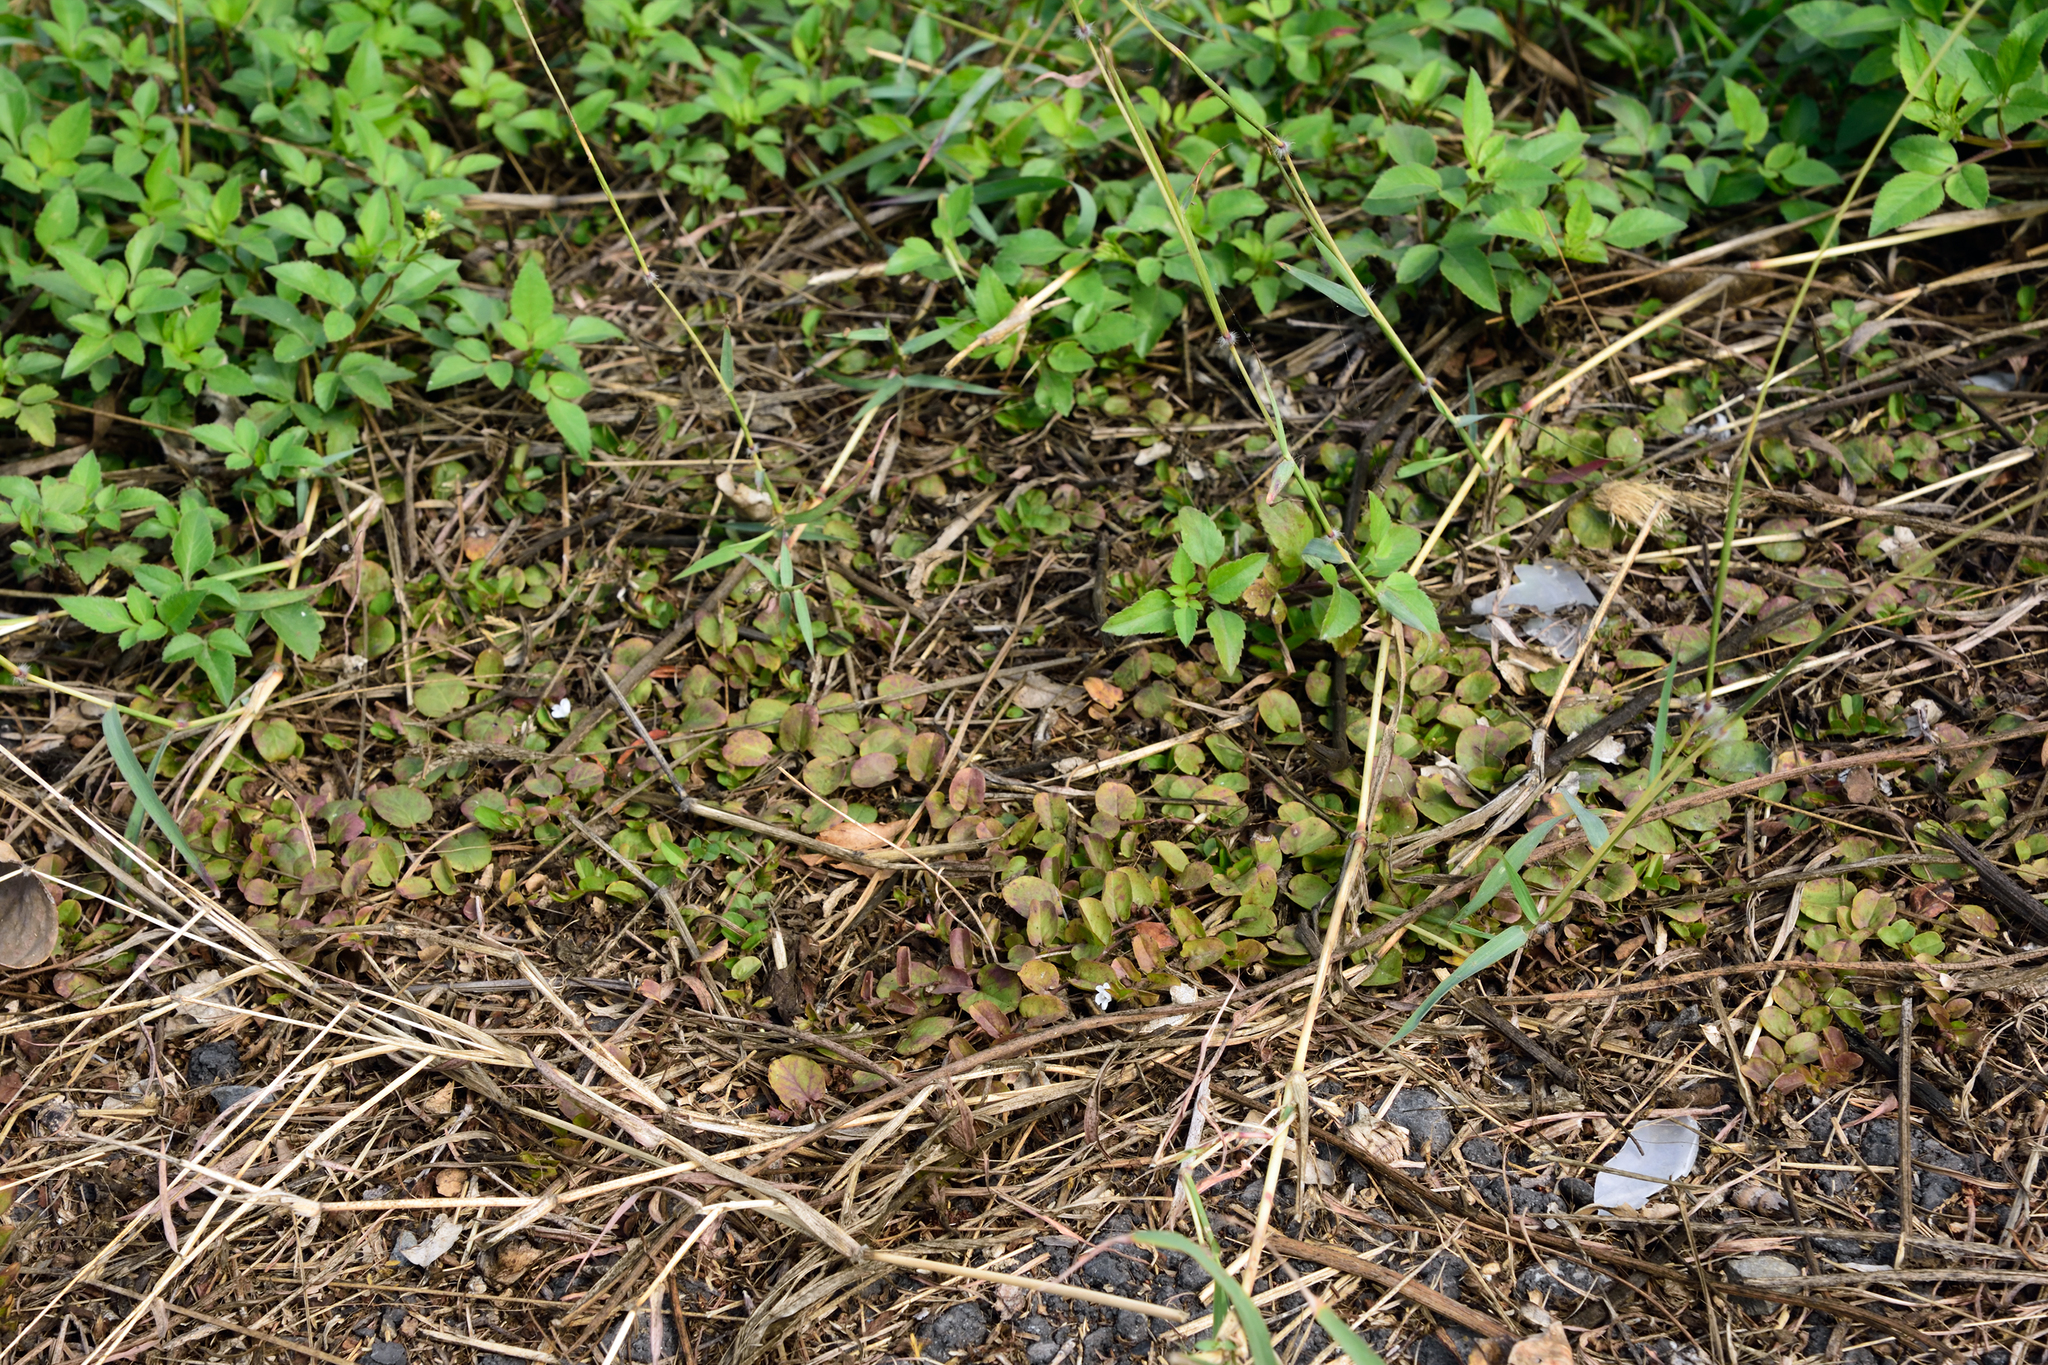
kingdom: Plantae
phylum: Tracheophyta
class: Magnoliopsida
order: Solanales
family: Convolvulaceae
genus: Evolvulus
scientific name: Evolvulus nummularius
